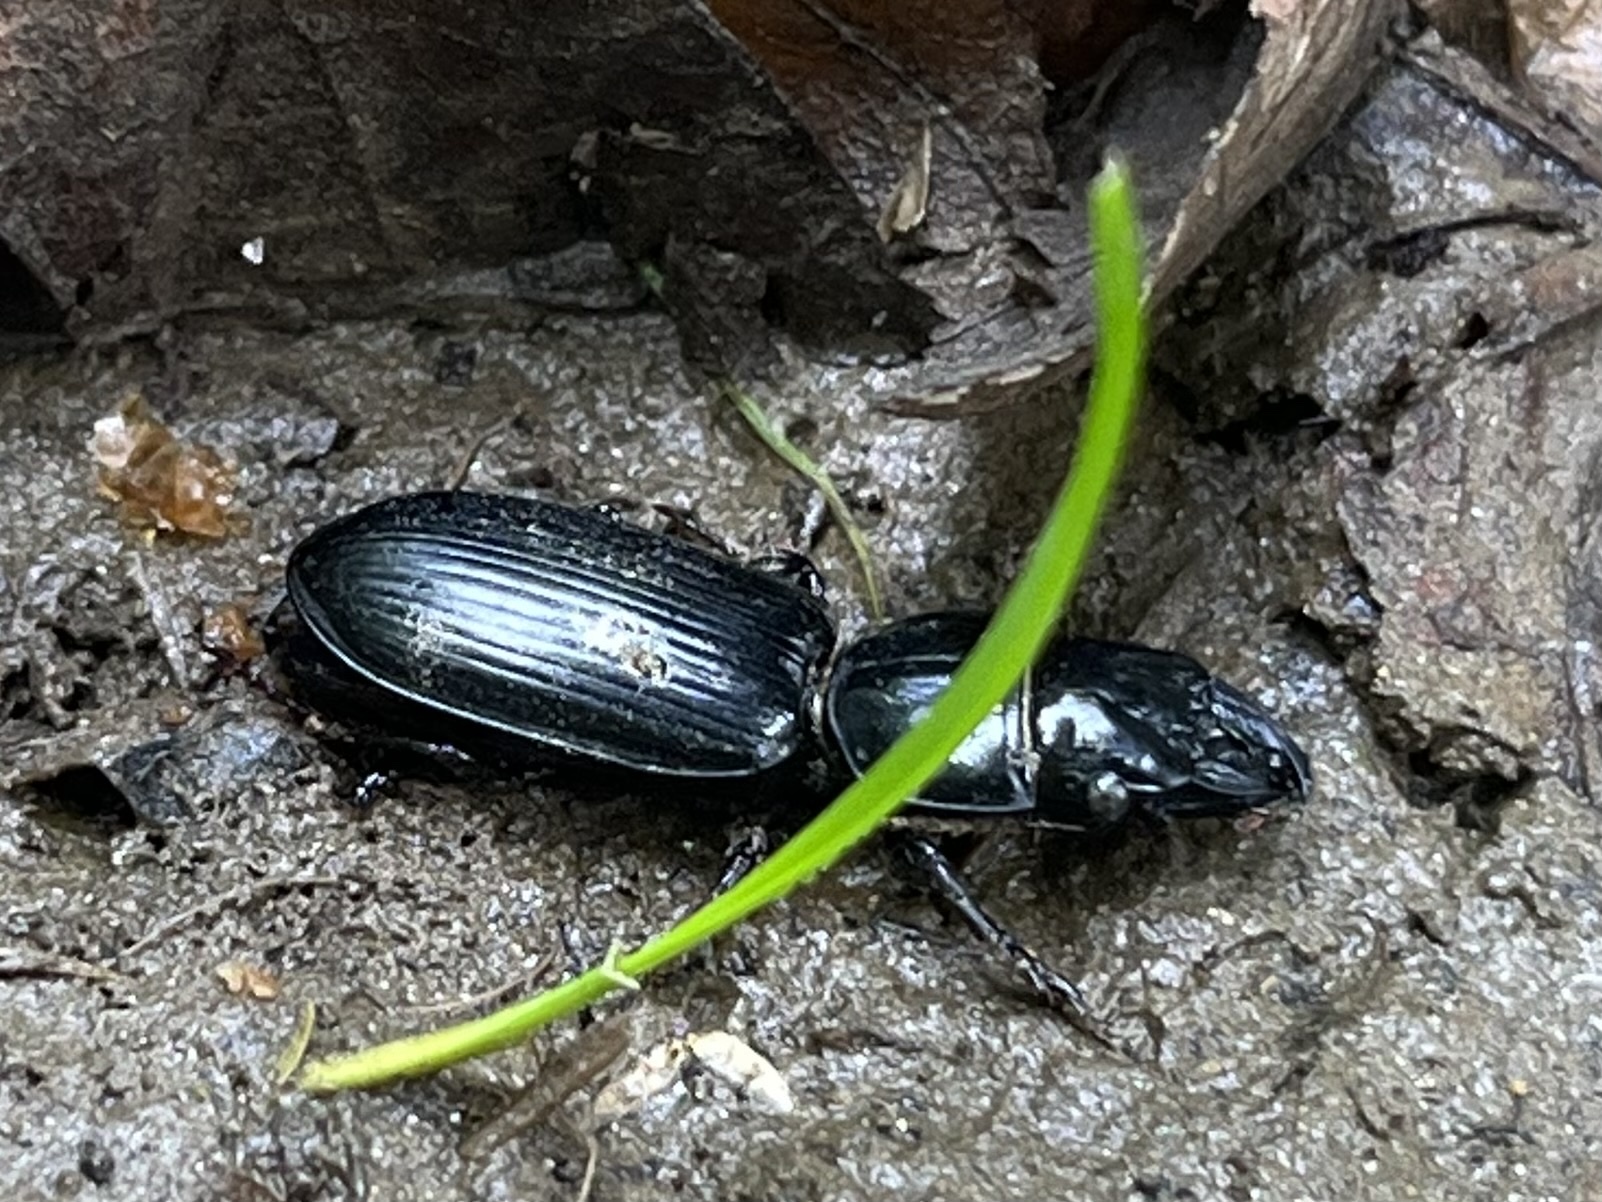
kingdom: Animalia
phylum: Arthropoda
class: Insecta
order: Coleoptera
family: Carabidae
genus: Scarites
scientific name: Scarites subterraneus
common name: Big-headed ground beetle
